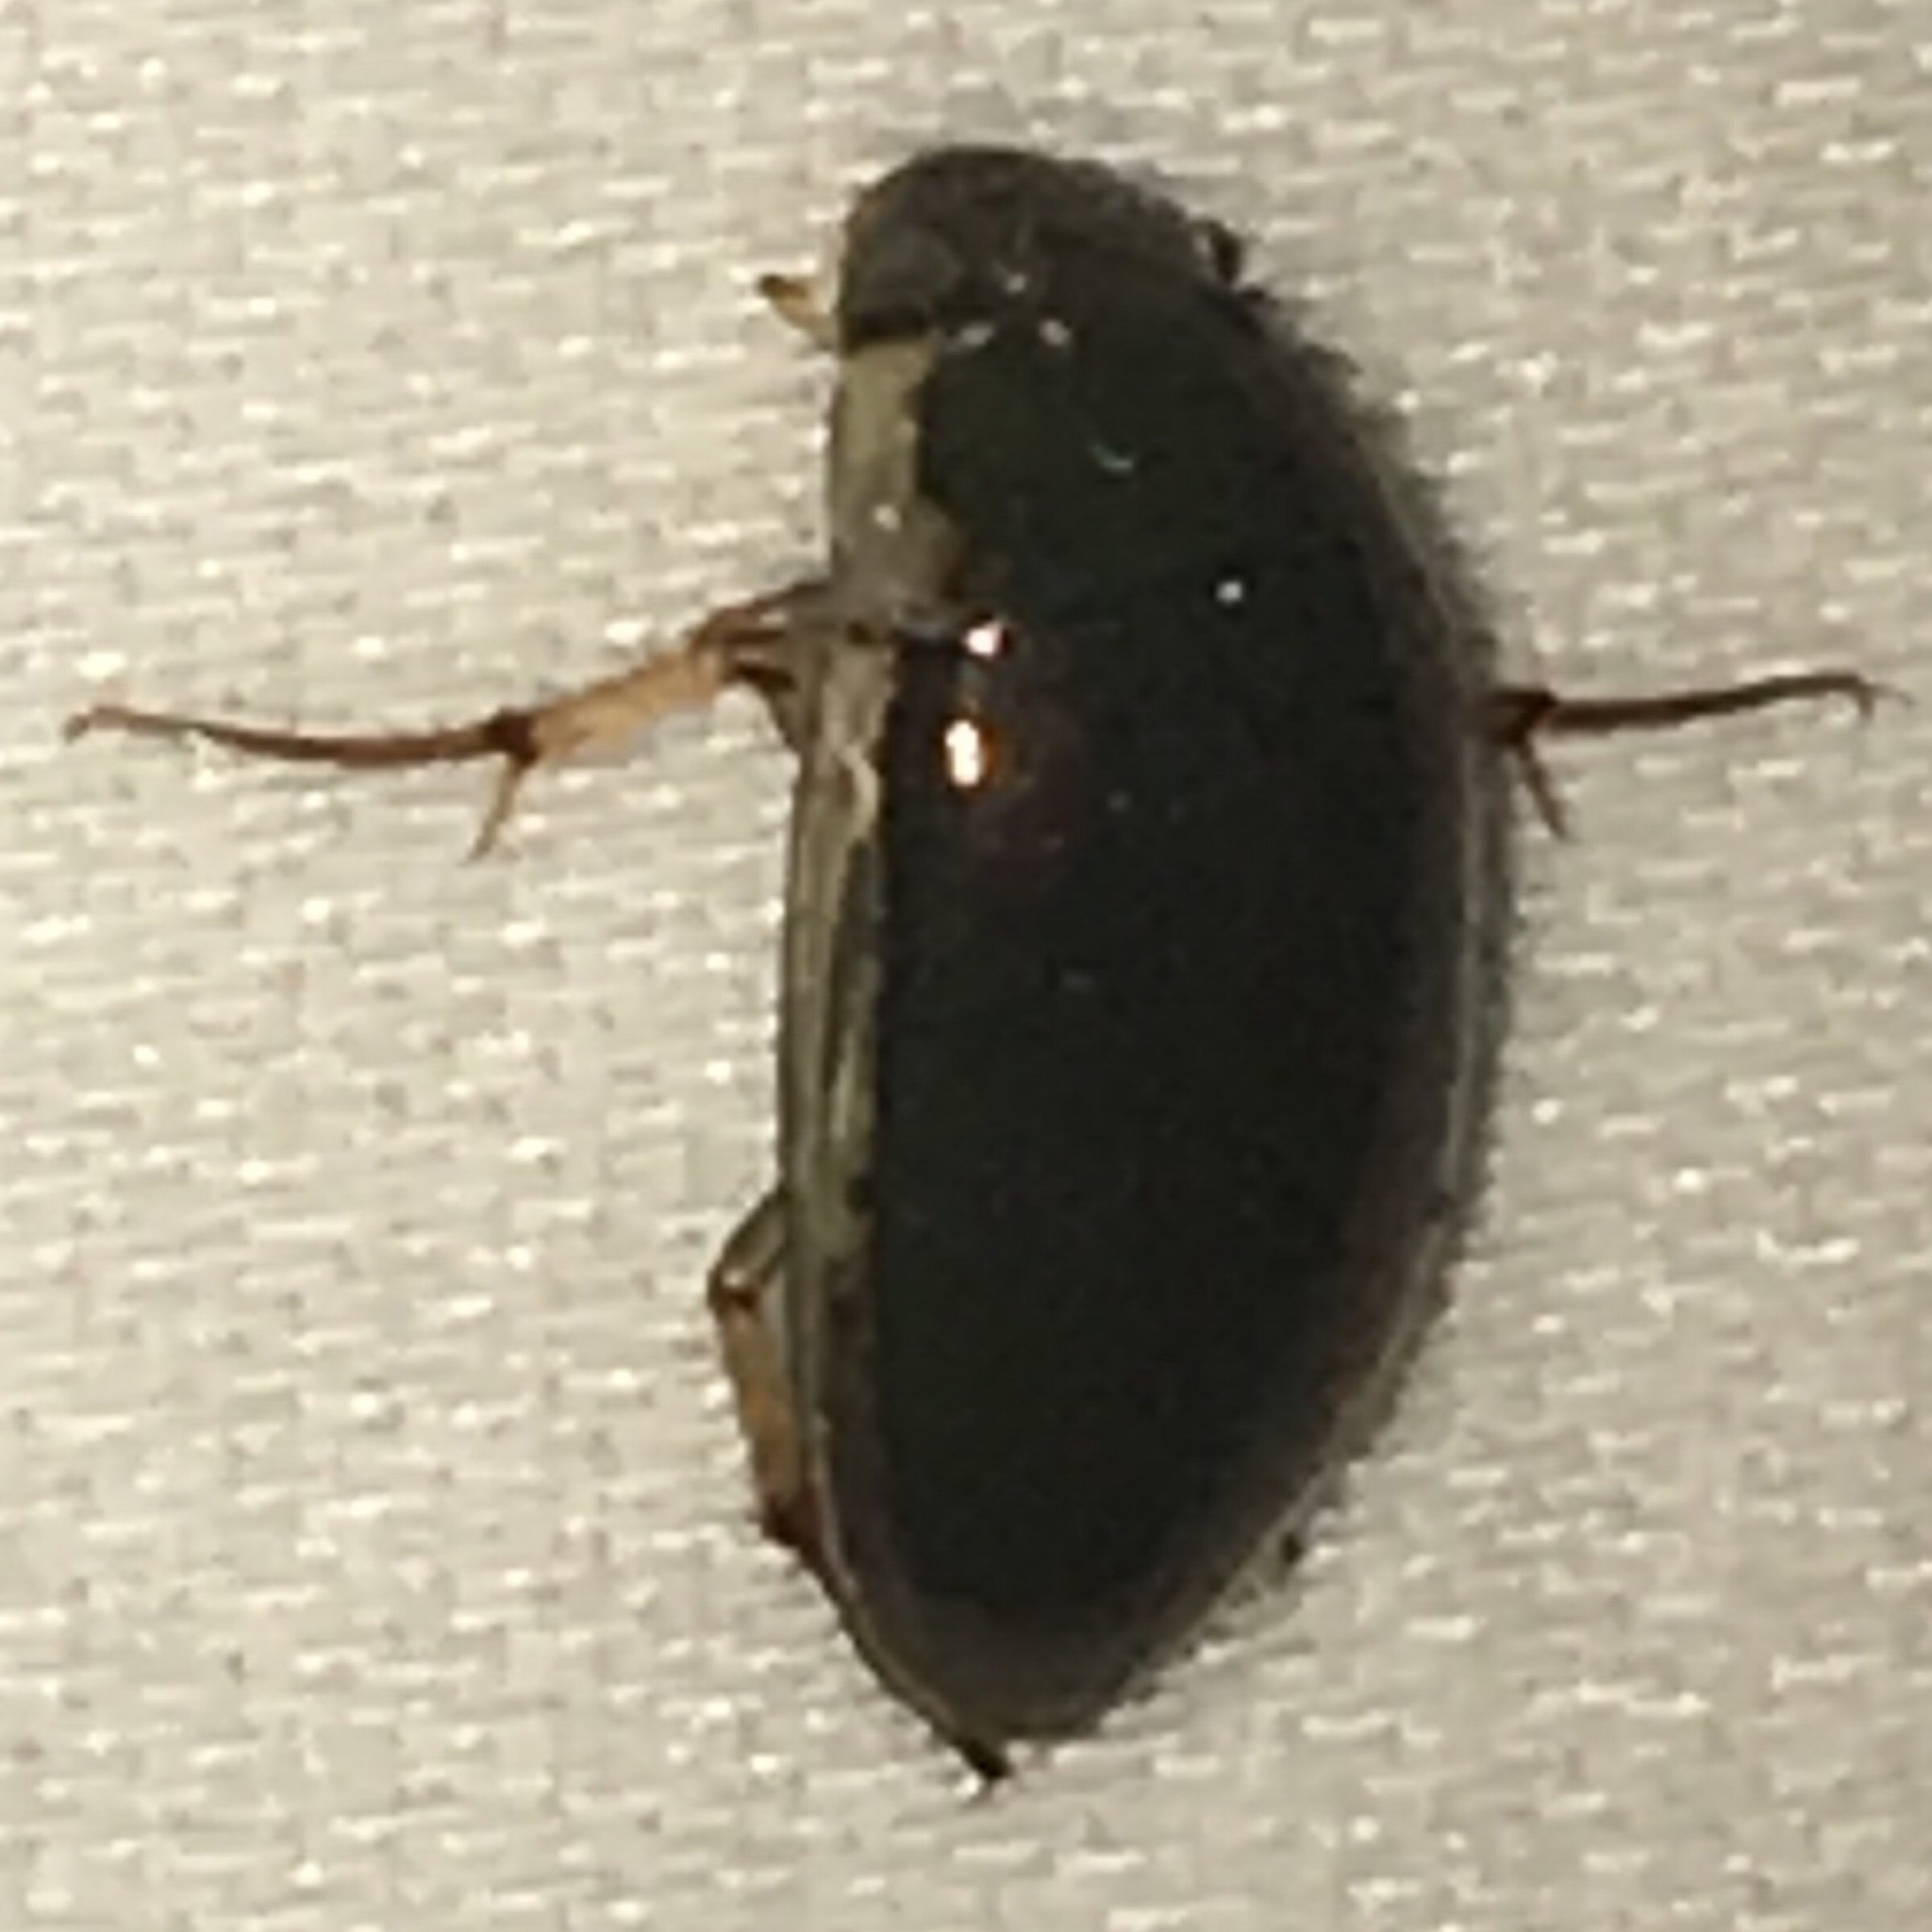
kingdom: Animalia
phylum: Arthropoda
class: Insecta
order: Coleoptera
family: Hydrophilidae
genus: Tropisternus
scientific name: Tropisternus lateralis
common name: Lateral-banded water scavenger beetle
